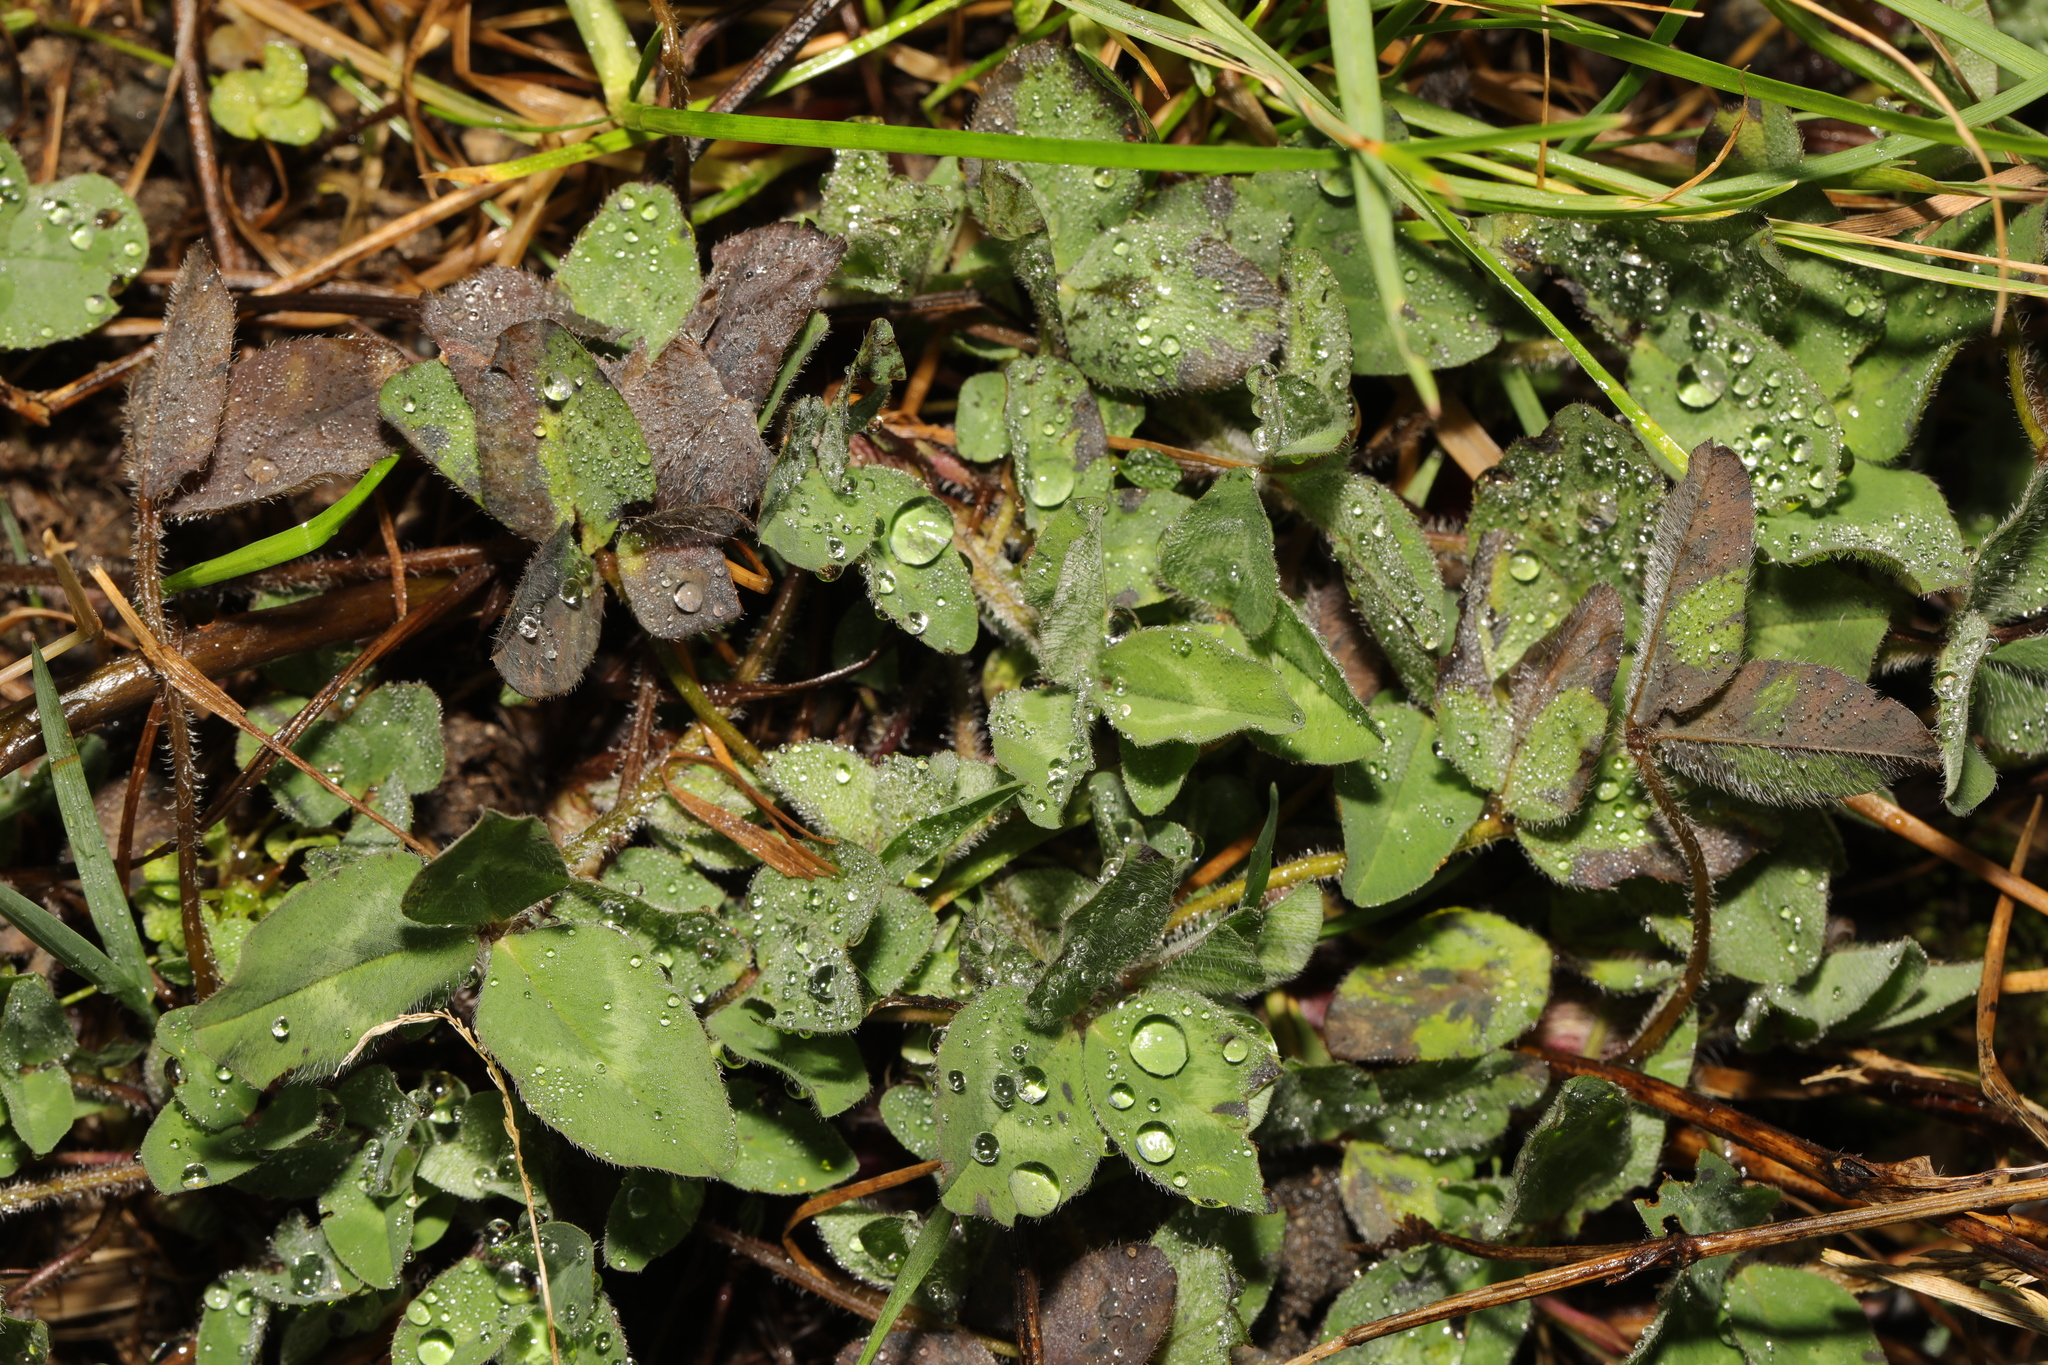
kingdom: Plantae
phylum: Tracheophyta
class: Magnoliopsida
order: Fabales
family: Fabaceae
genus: Trifolium
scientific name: Trifolium pratense
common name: Red clover
